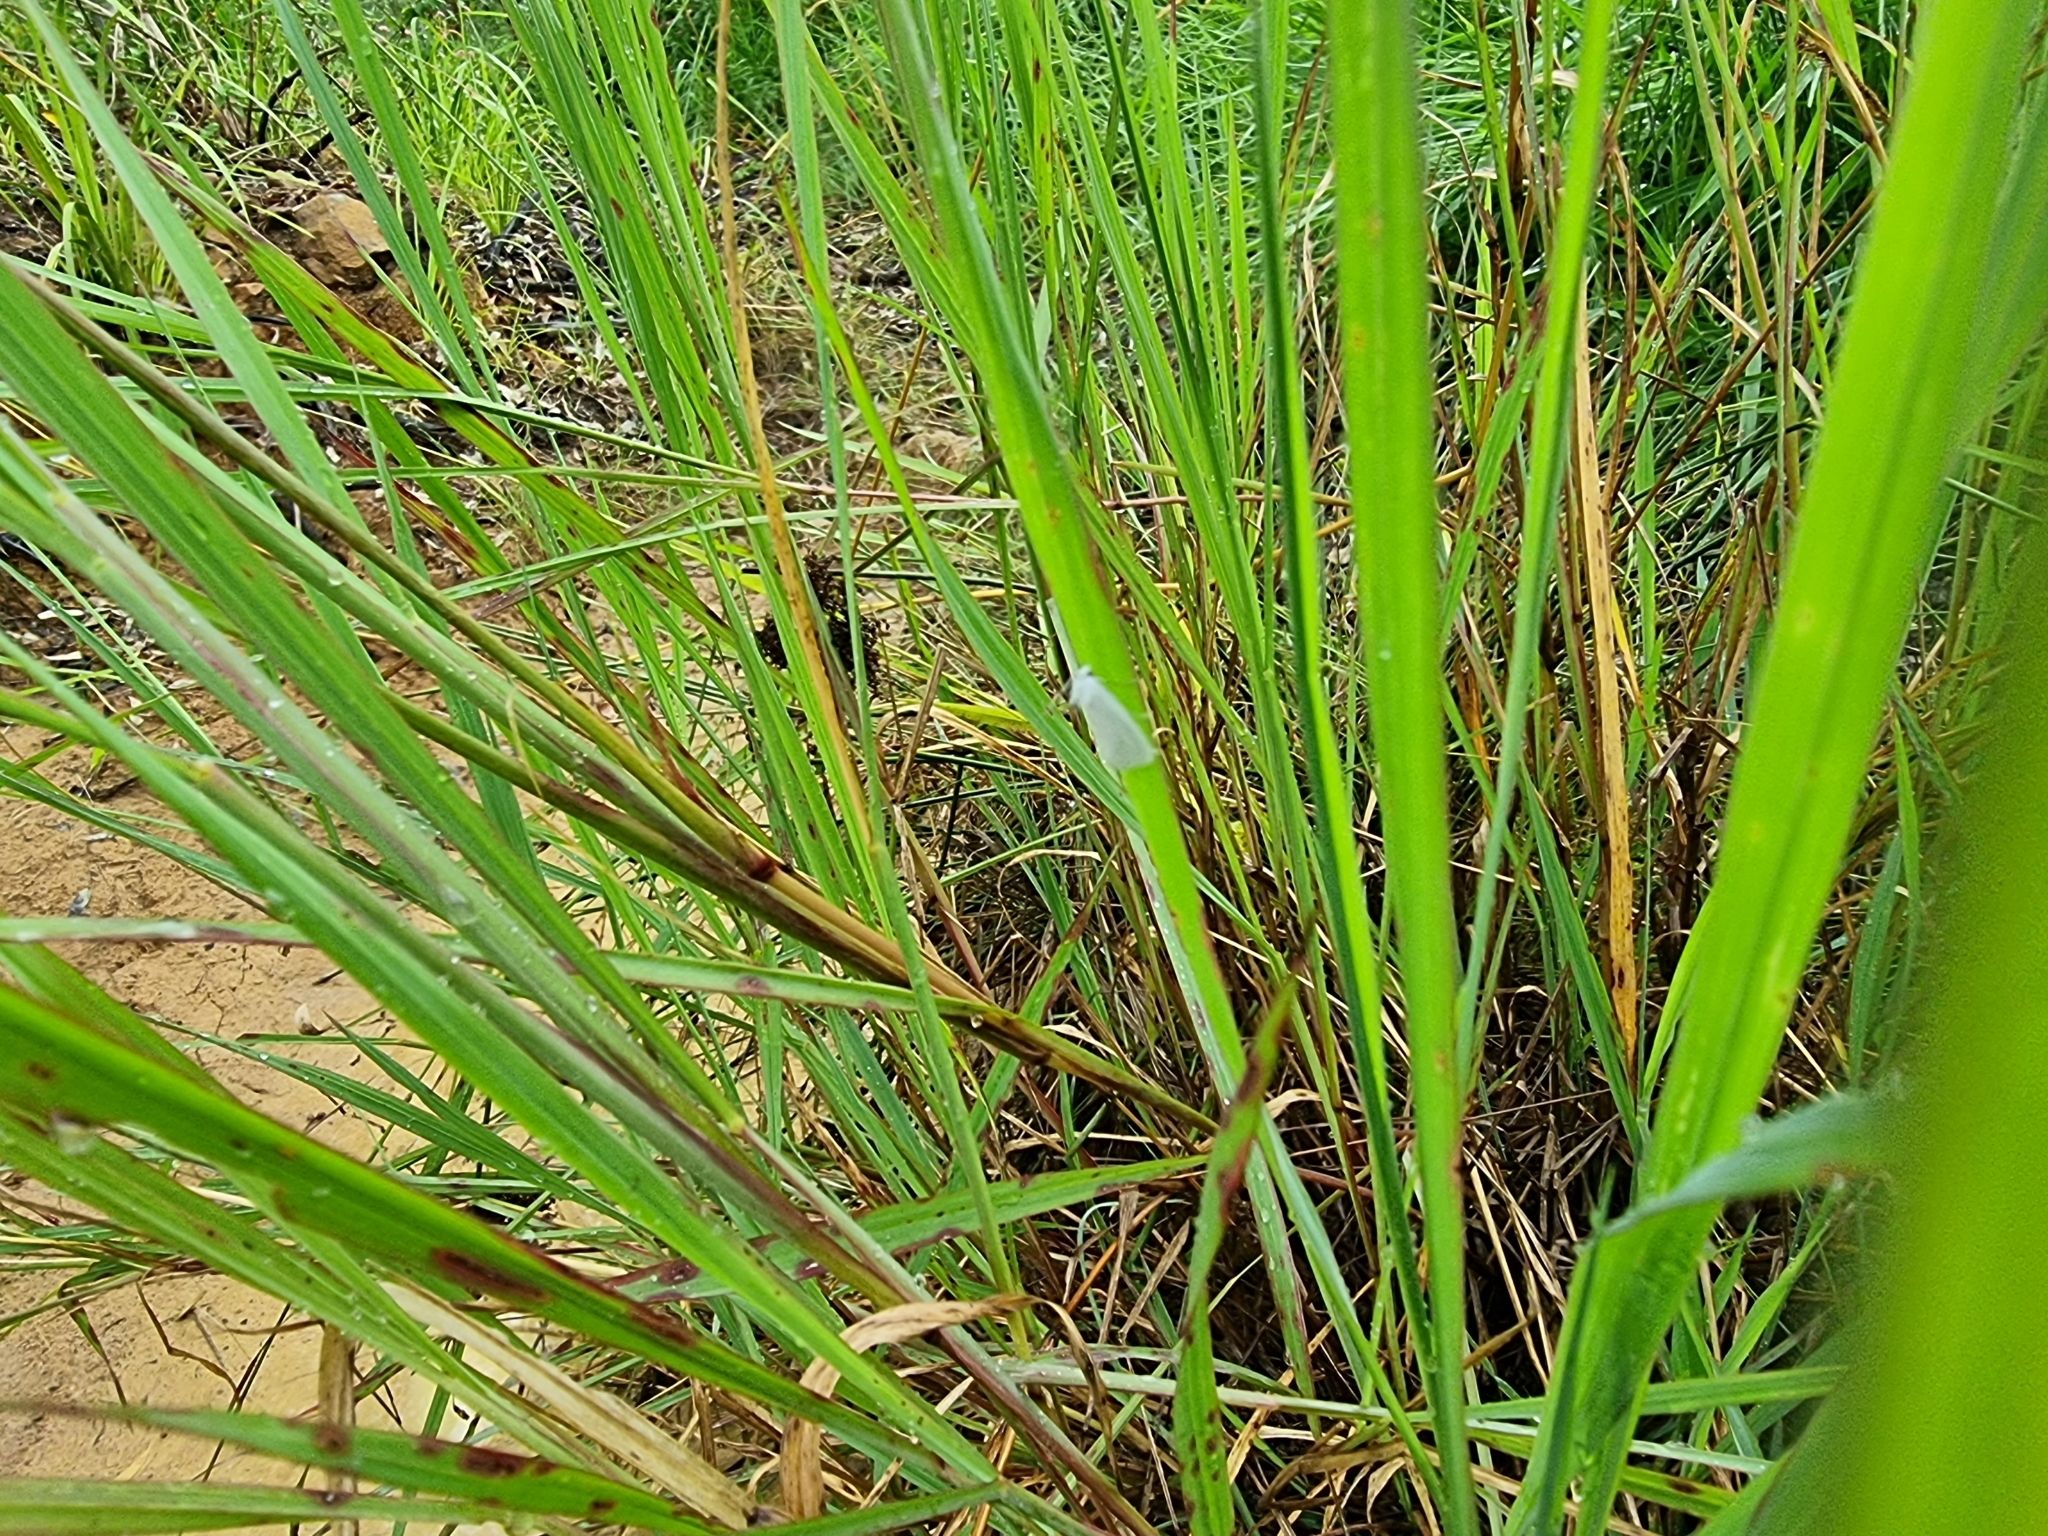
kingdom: Animalia
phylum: Arthropoda
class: Insecta
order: Lepidoptera
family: Crambidae
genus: Tipanaea
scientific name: Tipanaea patulella
